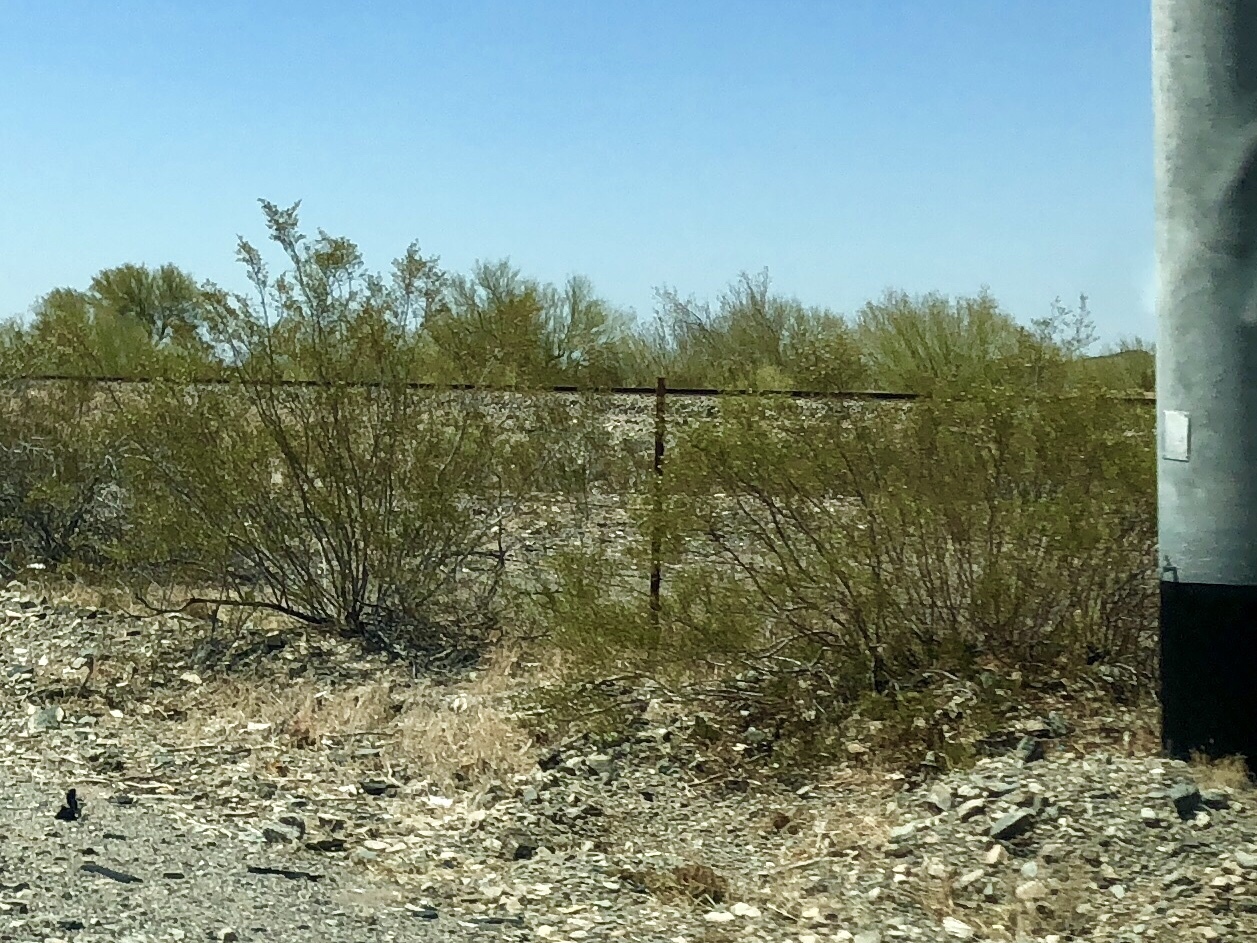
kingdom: Plantae
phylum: Tracheophyta
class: Magnoliopsida
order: Zygophyllales
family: Zygophyllaceae
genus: Larrea
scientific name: Larrea tridentata
